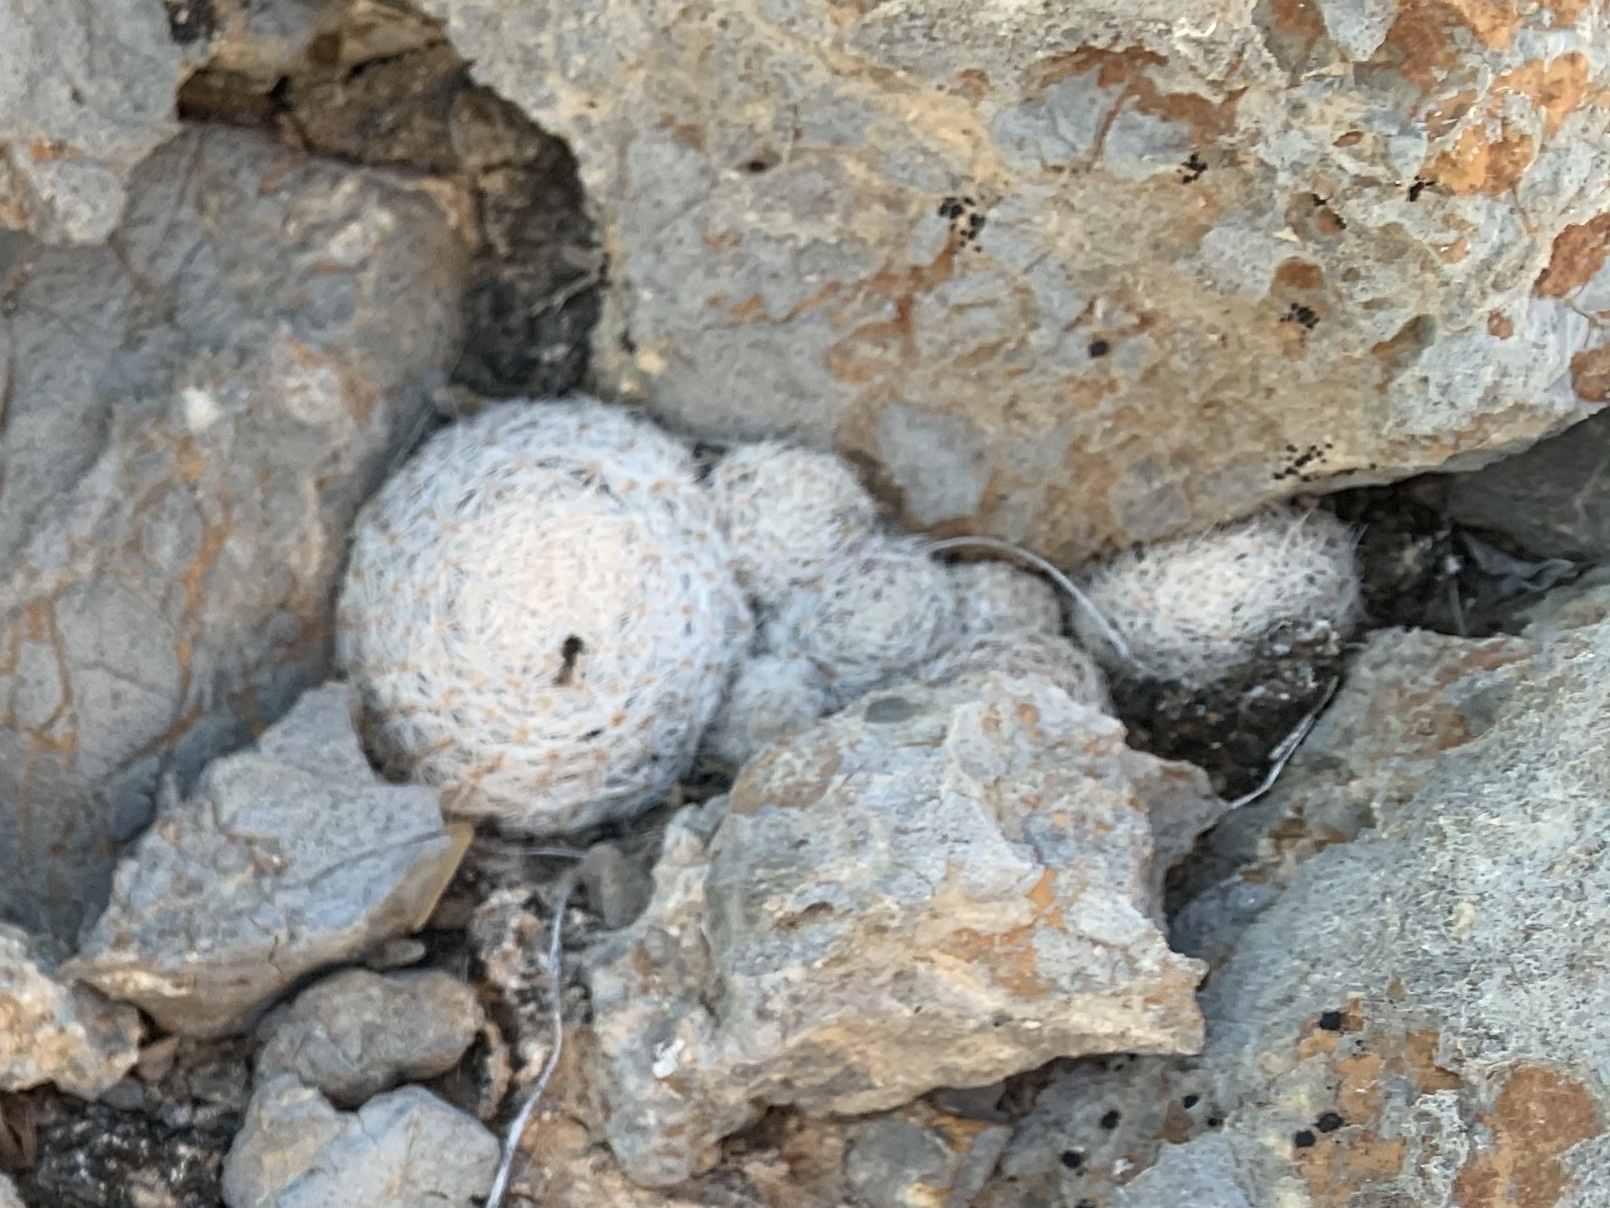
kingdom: Plantae
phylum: Tracheophyta
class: Magnoliopsida
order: Caryophyllales
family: Cactaceae
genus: Mammillaria
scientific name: Mammillaria lasiacantha
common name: Lace-spine nipple cactus
